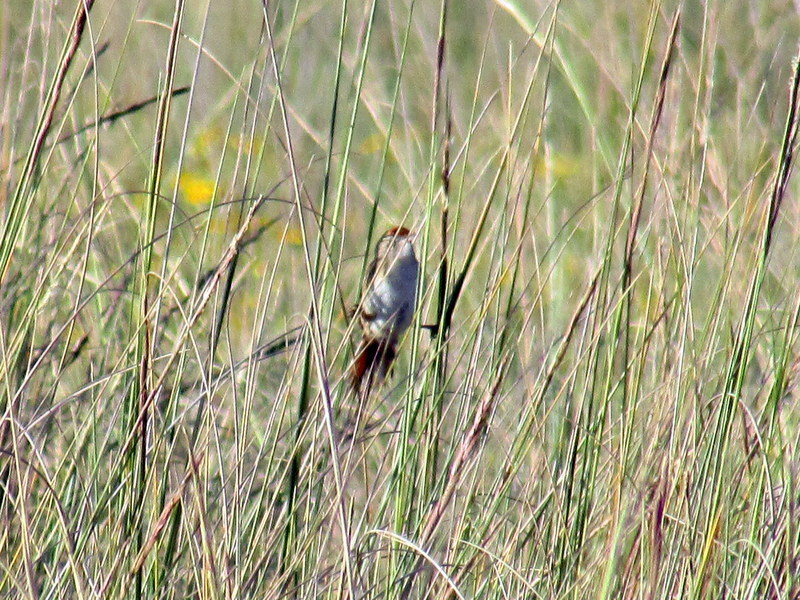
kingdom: Animalia
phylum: Chordata
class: Aves
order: Passeriformes
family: Furnariidae
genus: Spartonoica
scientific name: Spartonoica maluroides
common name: Bay-capped wren-spinetail
